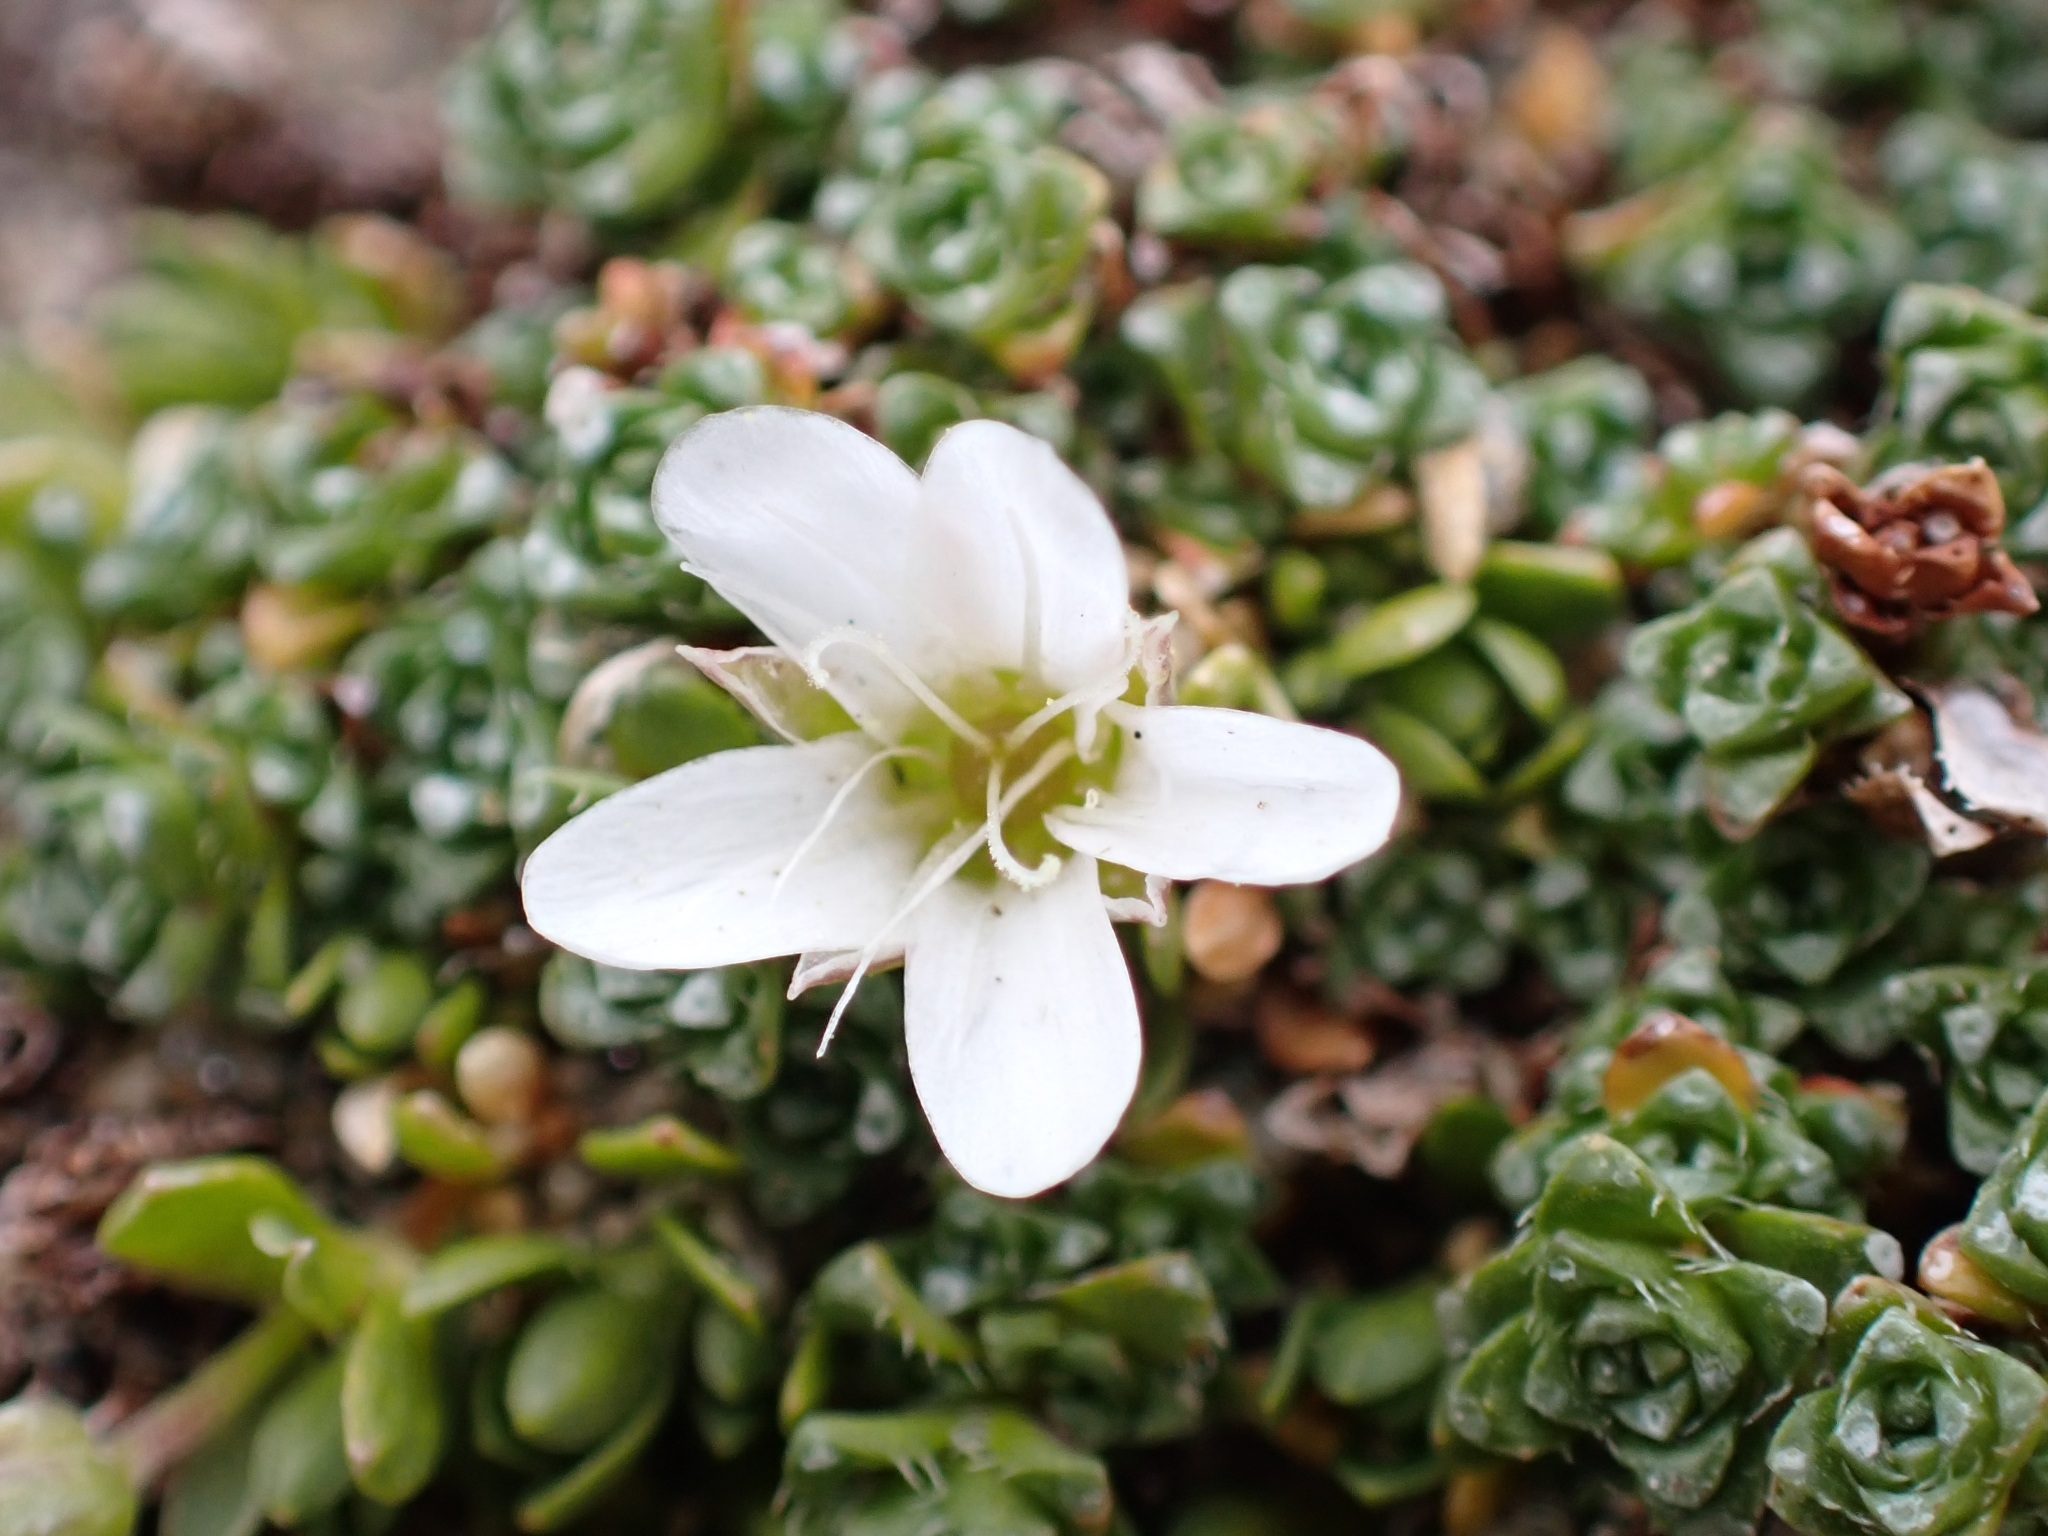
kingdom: Plantae
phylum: Tracheophyta
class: Magnoliopsida
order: Caryophyllales
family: Caryophyllaceae
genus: Arenaria
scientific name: Arenaria ciliata
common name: Fringed sandwort
